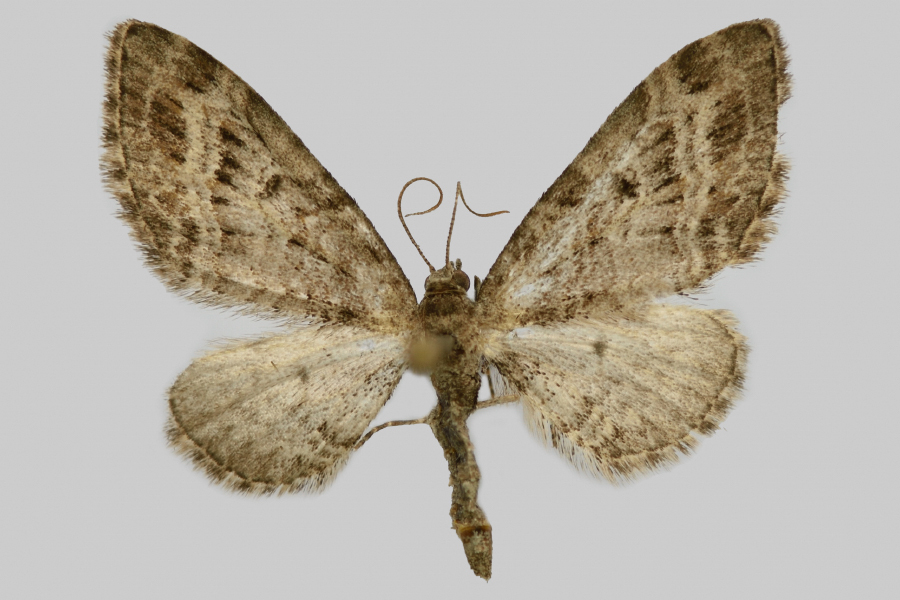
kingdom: Animalia
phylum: Arthropoda
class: Insecta
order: Lepidoptera
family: Geometridae
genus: Eupithecia
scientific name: Eupithecia exiguata
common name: Mottled pug
